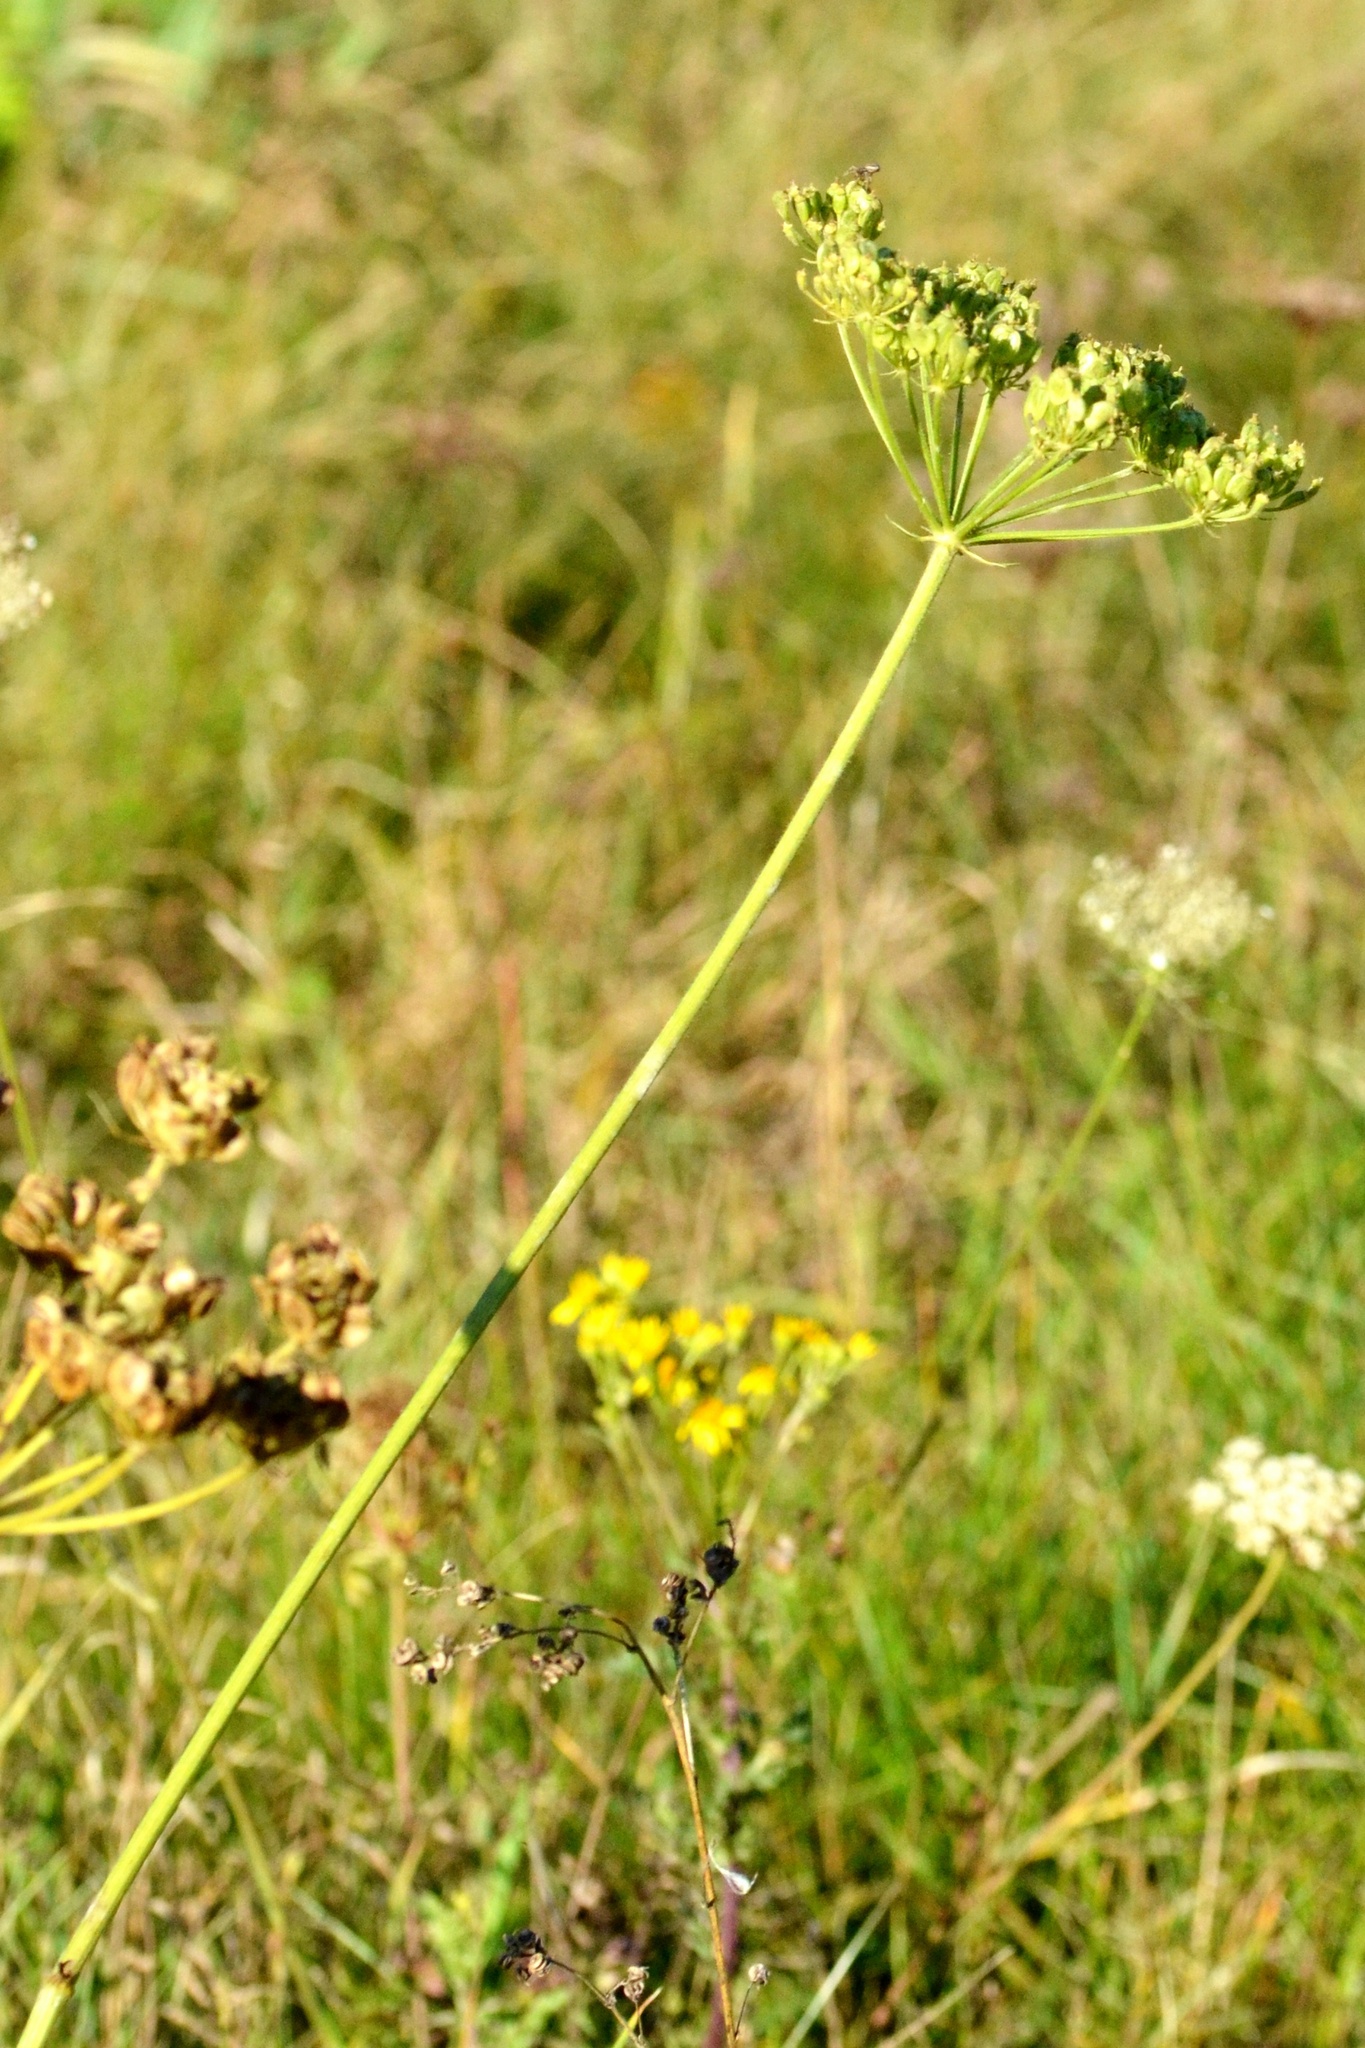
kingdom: Plantae
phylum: Tracheophyta
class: Magnoliopsida
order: Apiales
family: Apiaceae
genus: Heracleum
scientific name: Heracleum sphondylium
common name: Hogweed
